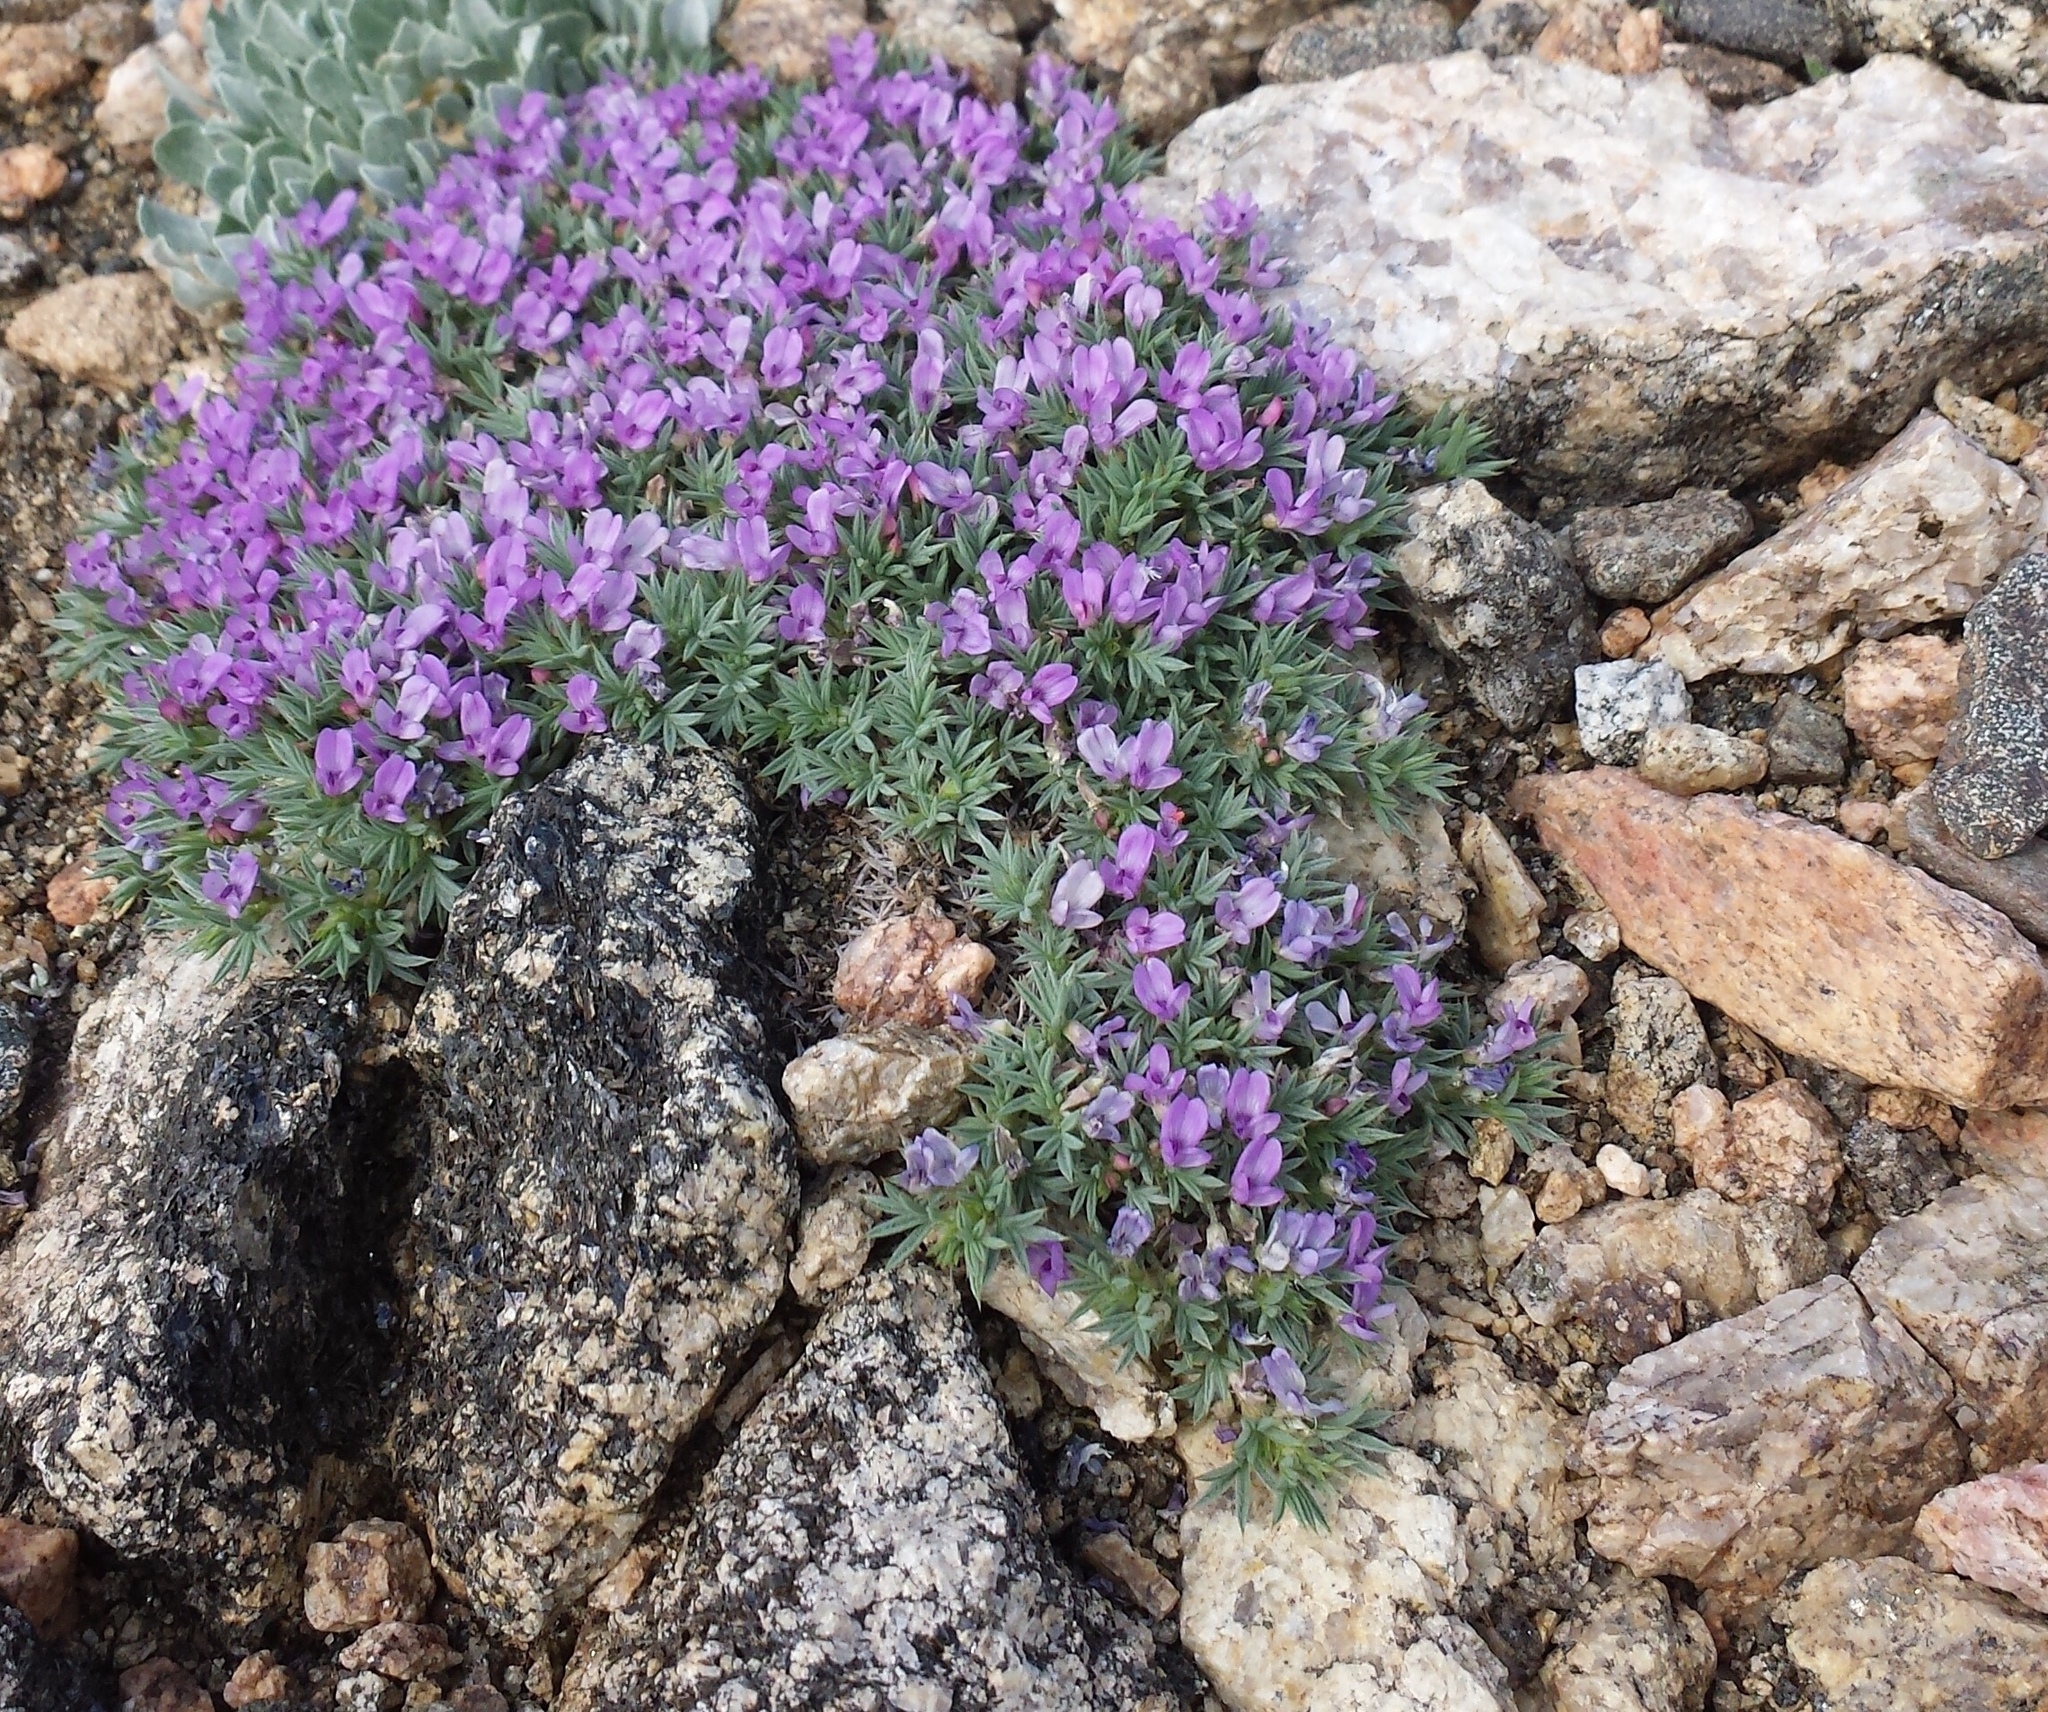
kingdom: Plantae
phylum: Tracheophyta
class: Magnoliopsida
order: Fabales
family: Fabaceae
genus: Astragalus
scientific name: Astragalus kentrophyta
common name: Prickly milk-vetch
